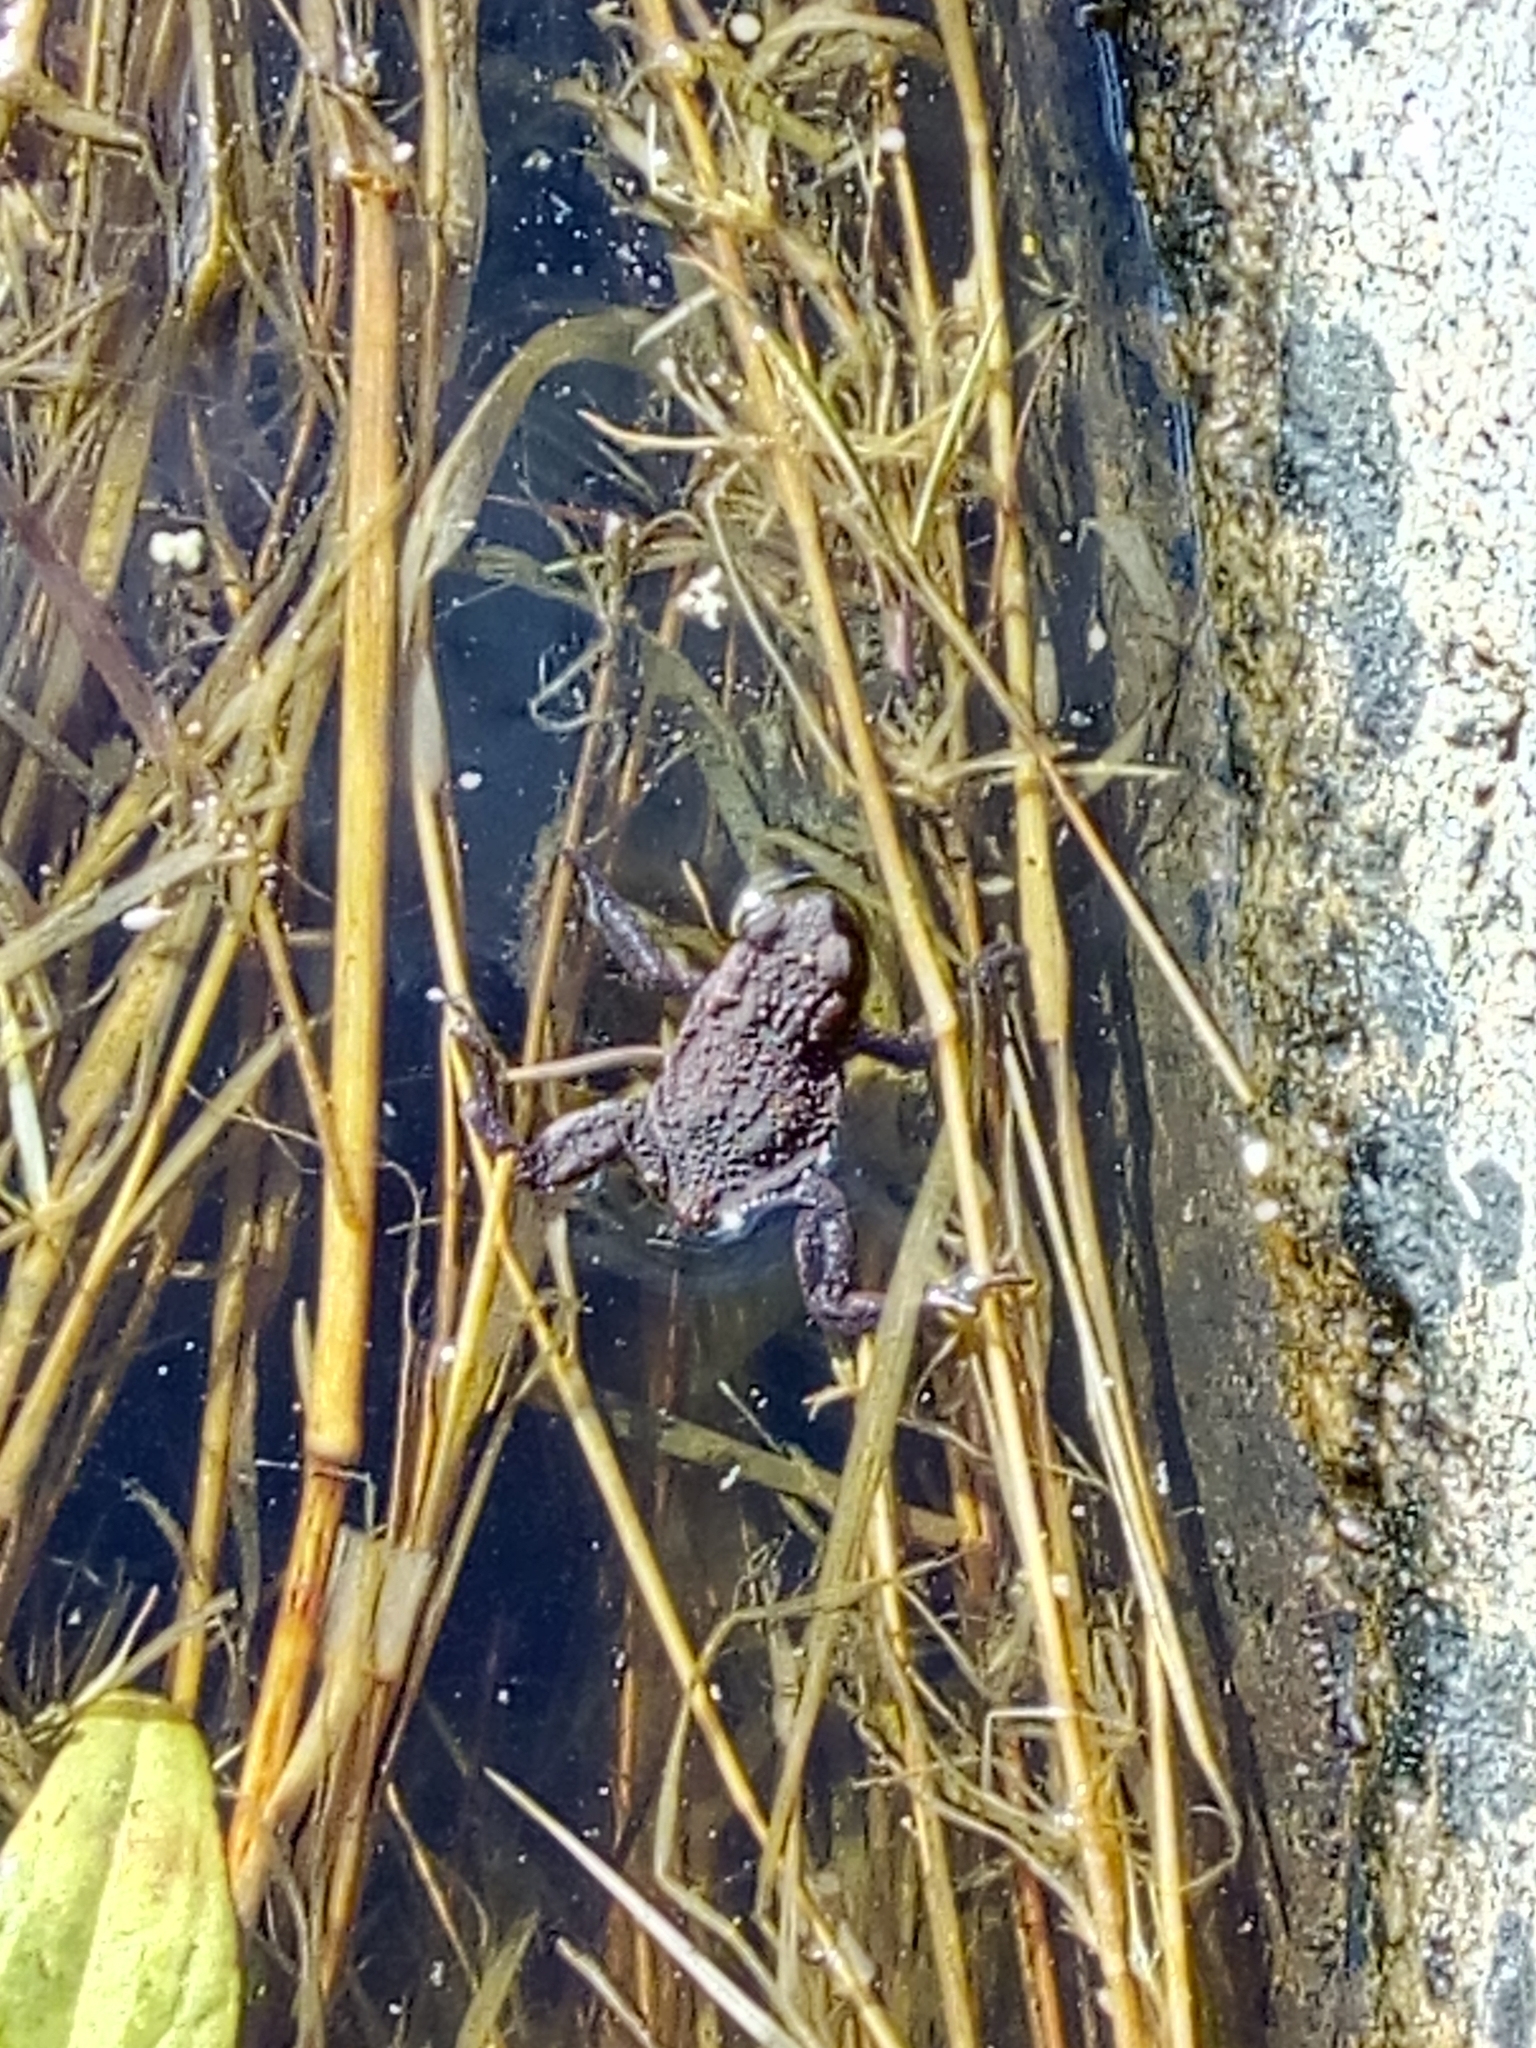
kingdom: Animalia
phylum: Chordata
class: Amphibia
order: Anura
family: Bufonidae
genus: Bufo
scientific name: Bufo bufo
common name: Common toad
